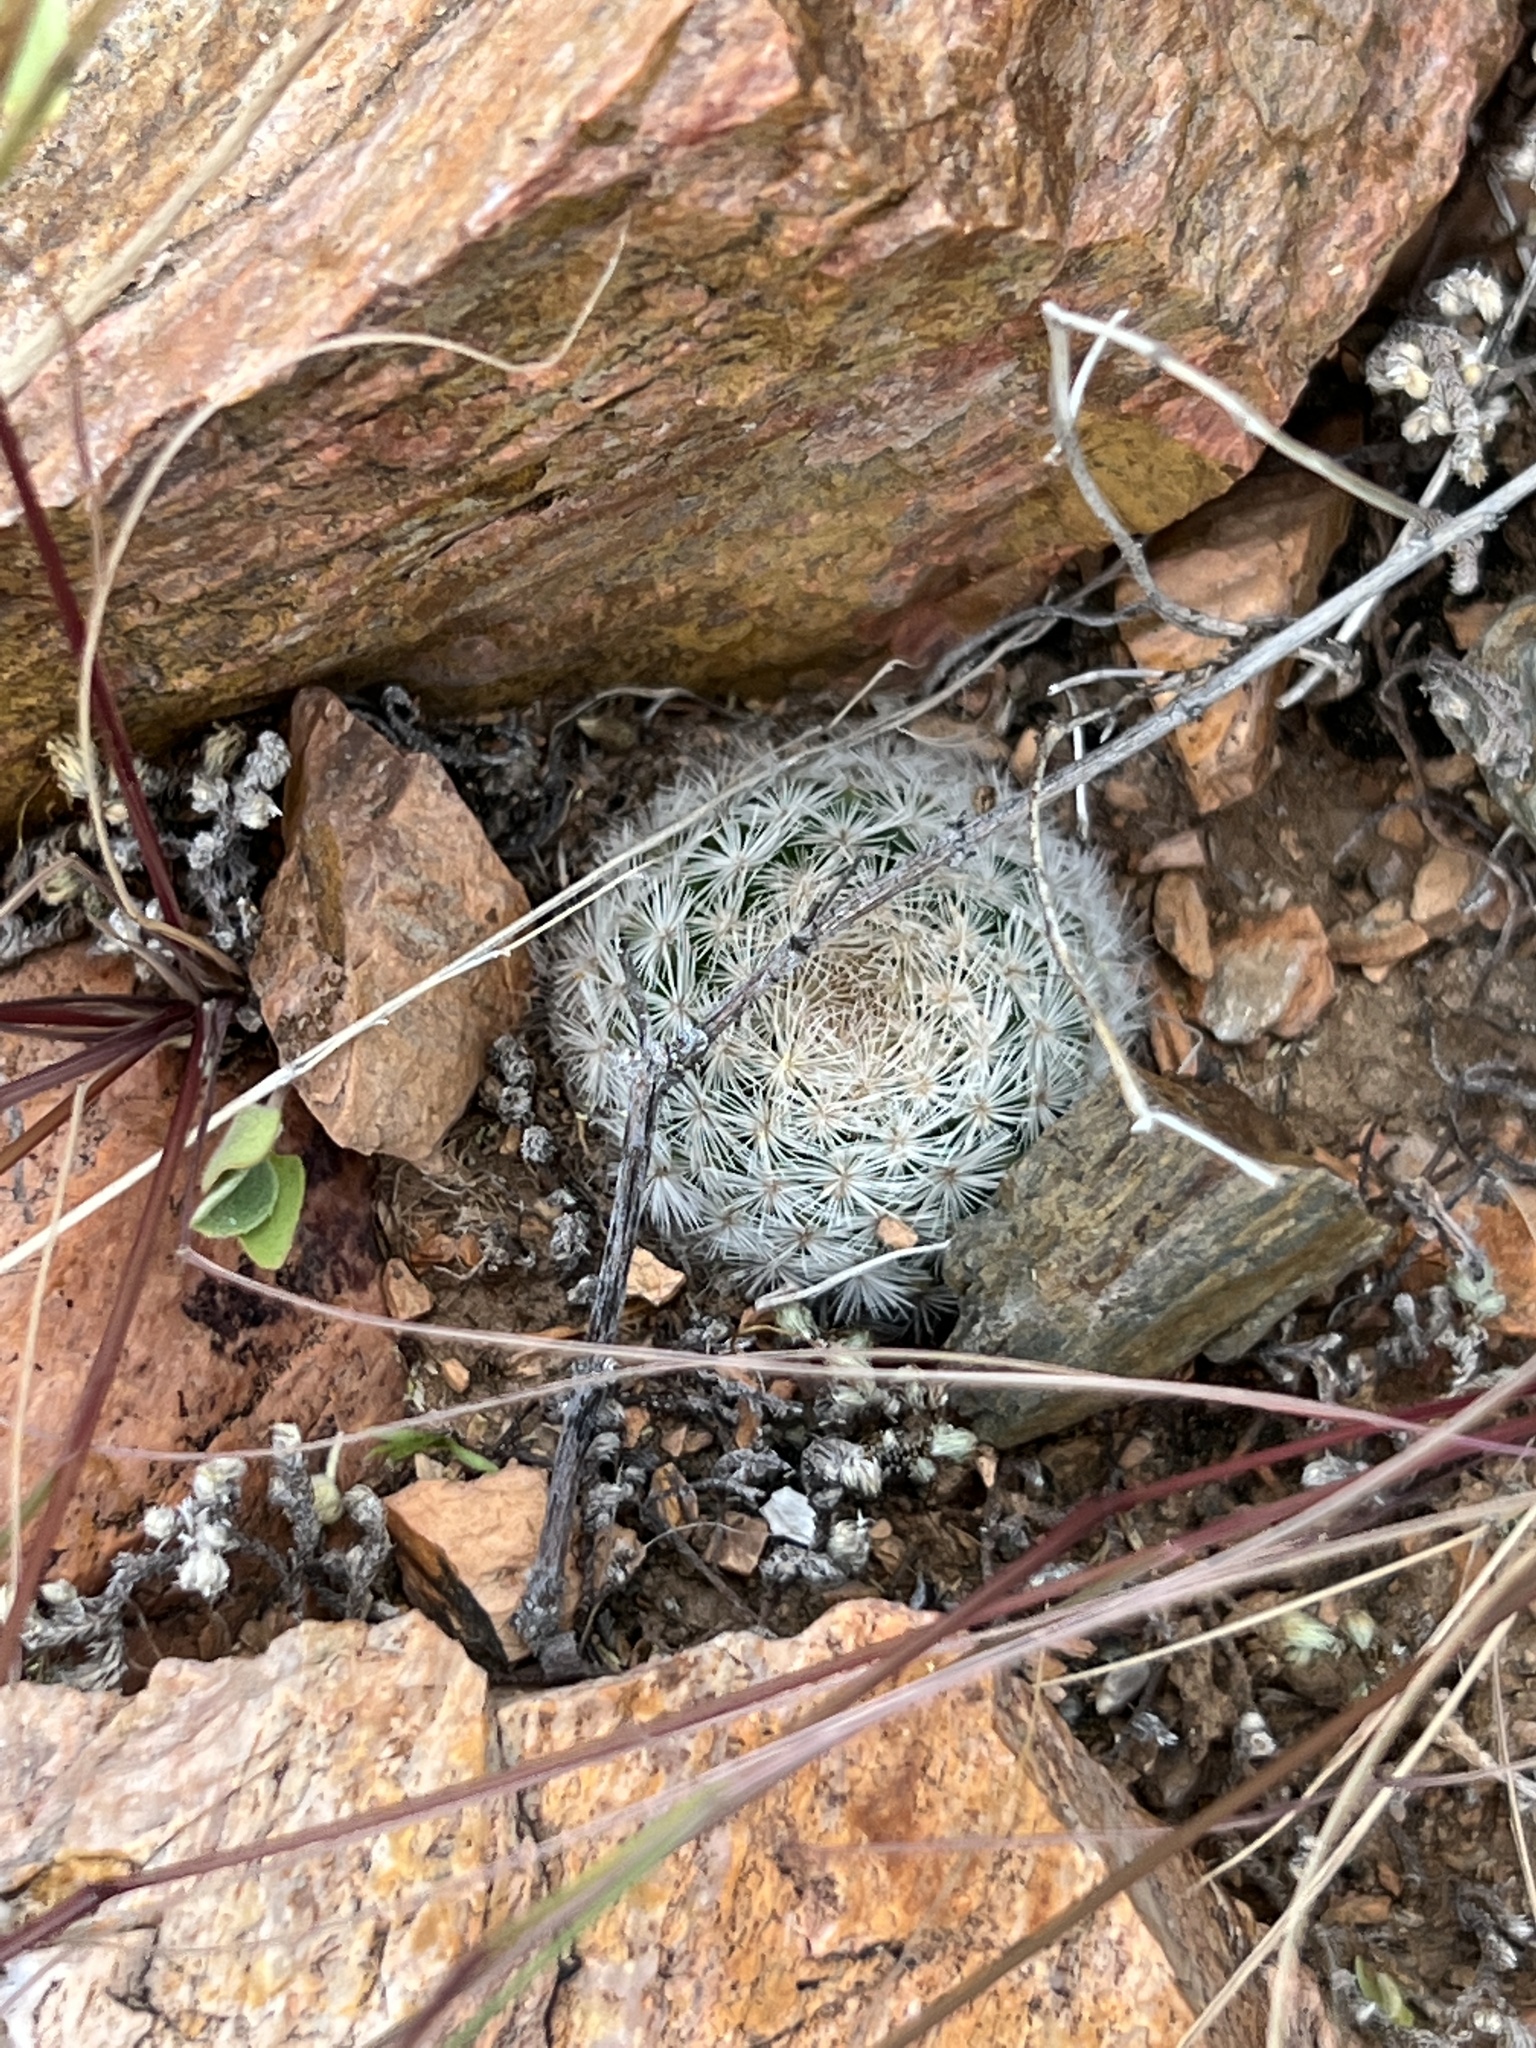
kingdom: Plantae
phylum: Tracheophyta
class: Magnoliopsida
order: Caryophyllales
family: Cactaceae
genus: Mammillaria
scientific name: Mammillaria lasiacantha
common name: Lace-spine nipple cactus
